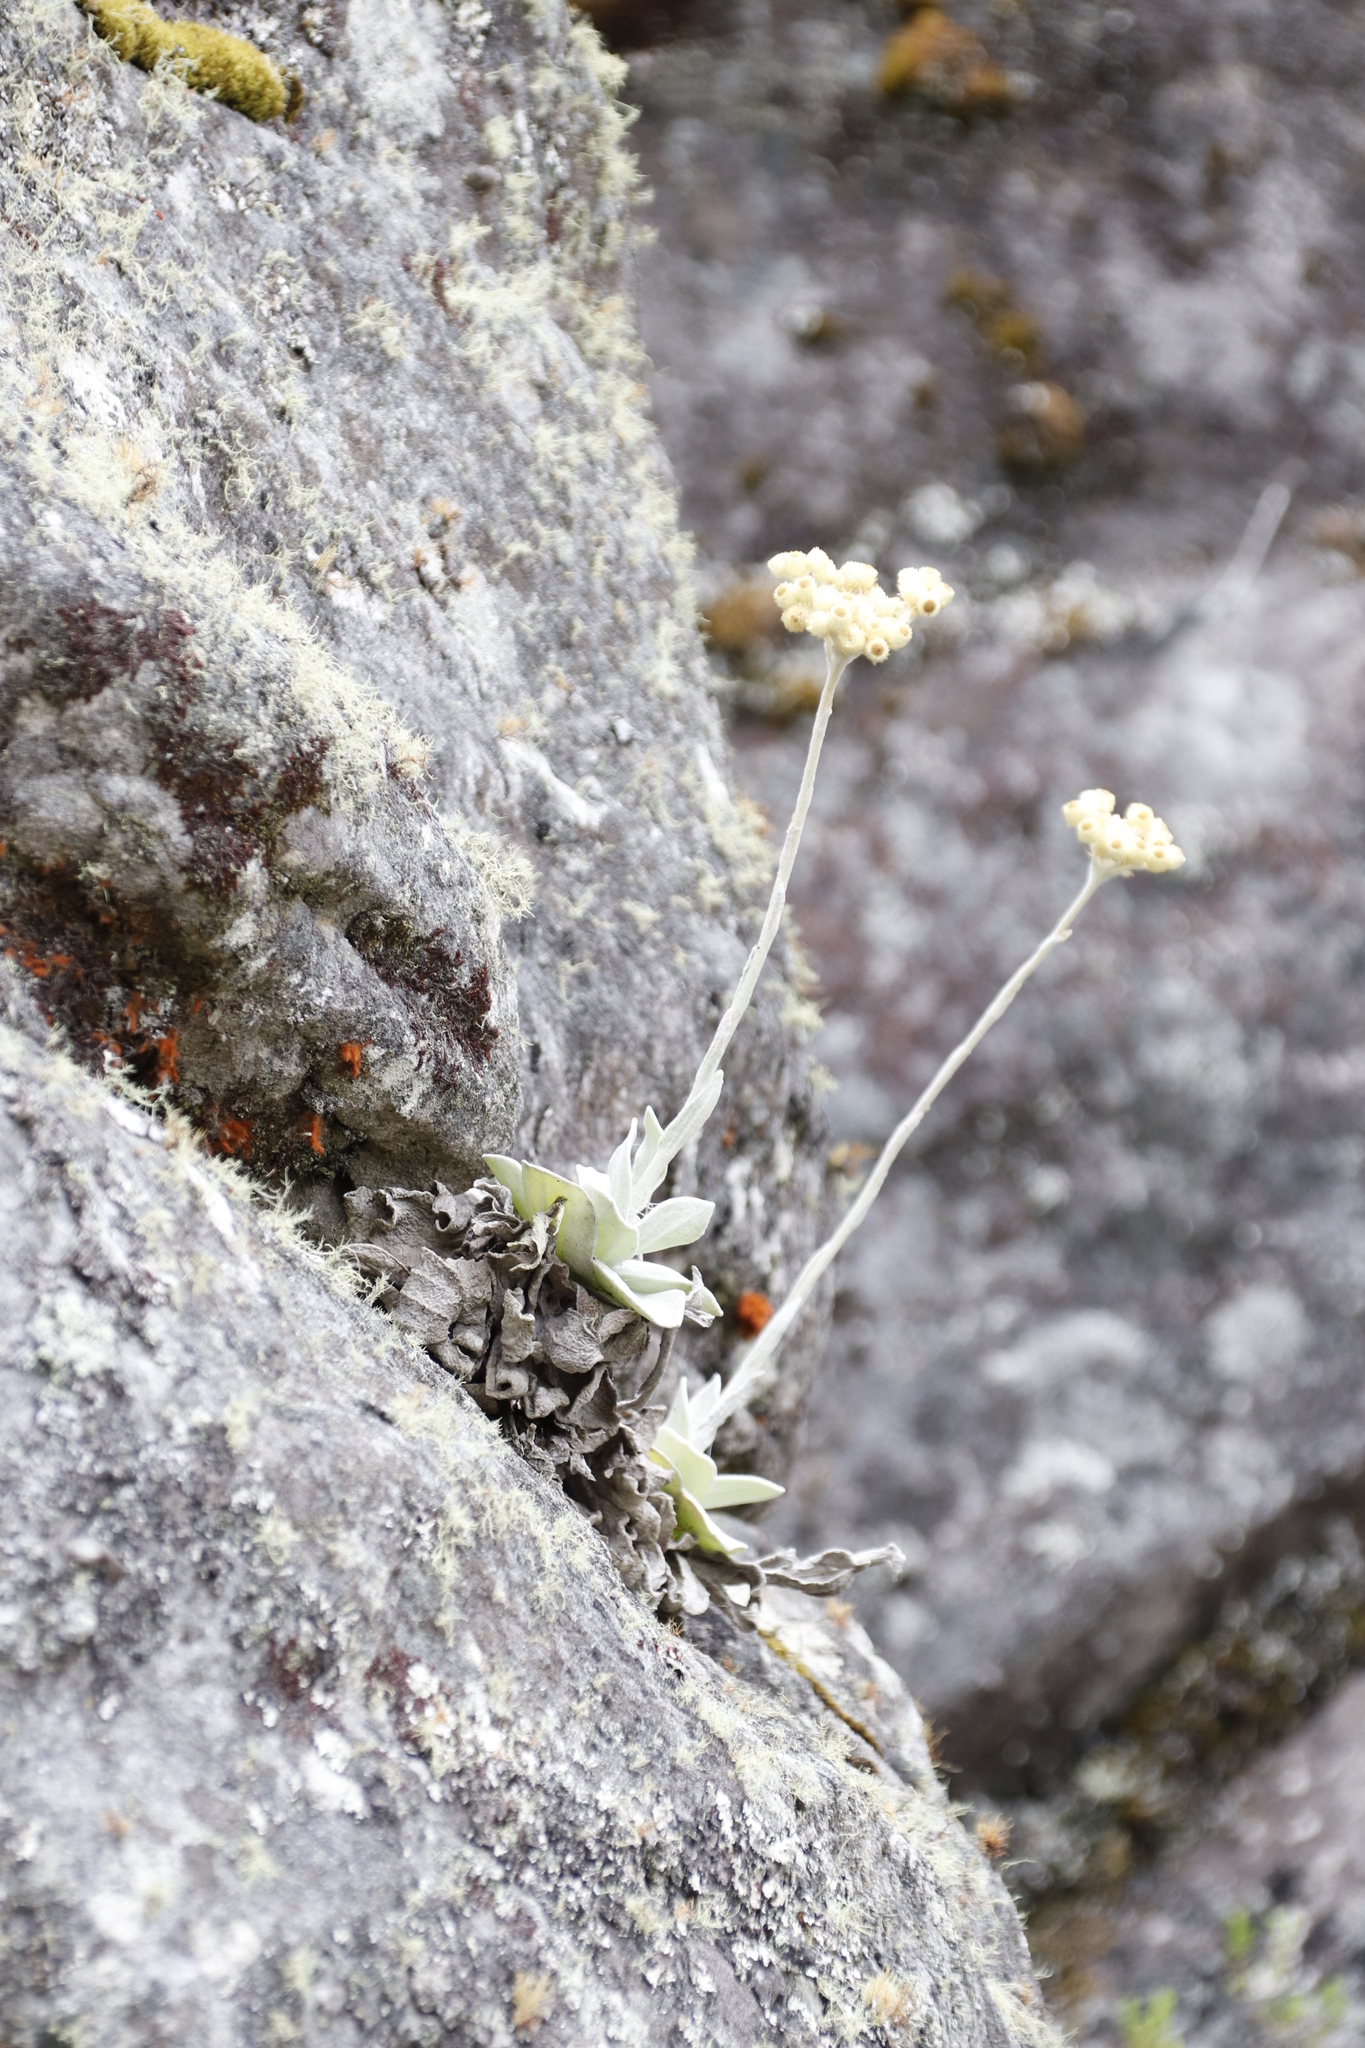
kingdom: Plantae
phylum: Tracheophyta
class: Magnoliopsida
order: Asterales
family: Asteraceae
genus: Helichrysum
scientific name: Helichrysum grandiflorum
